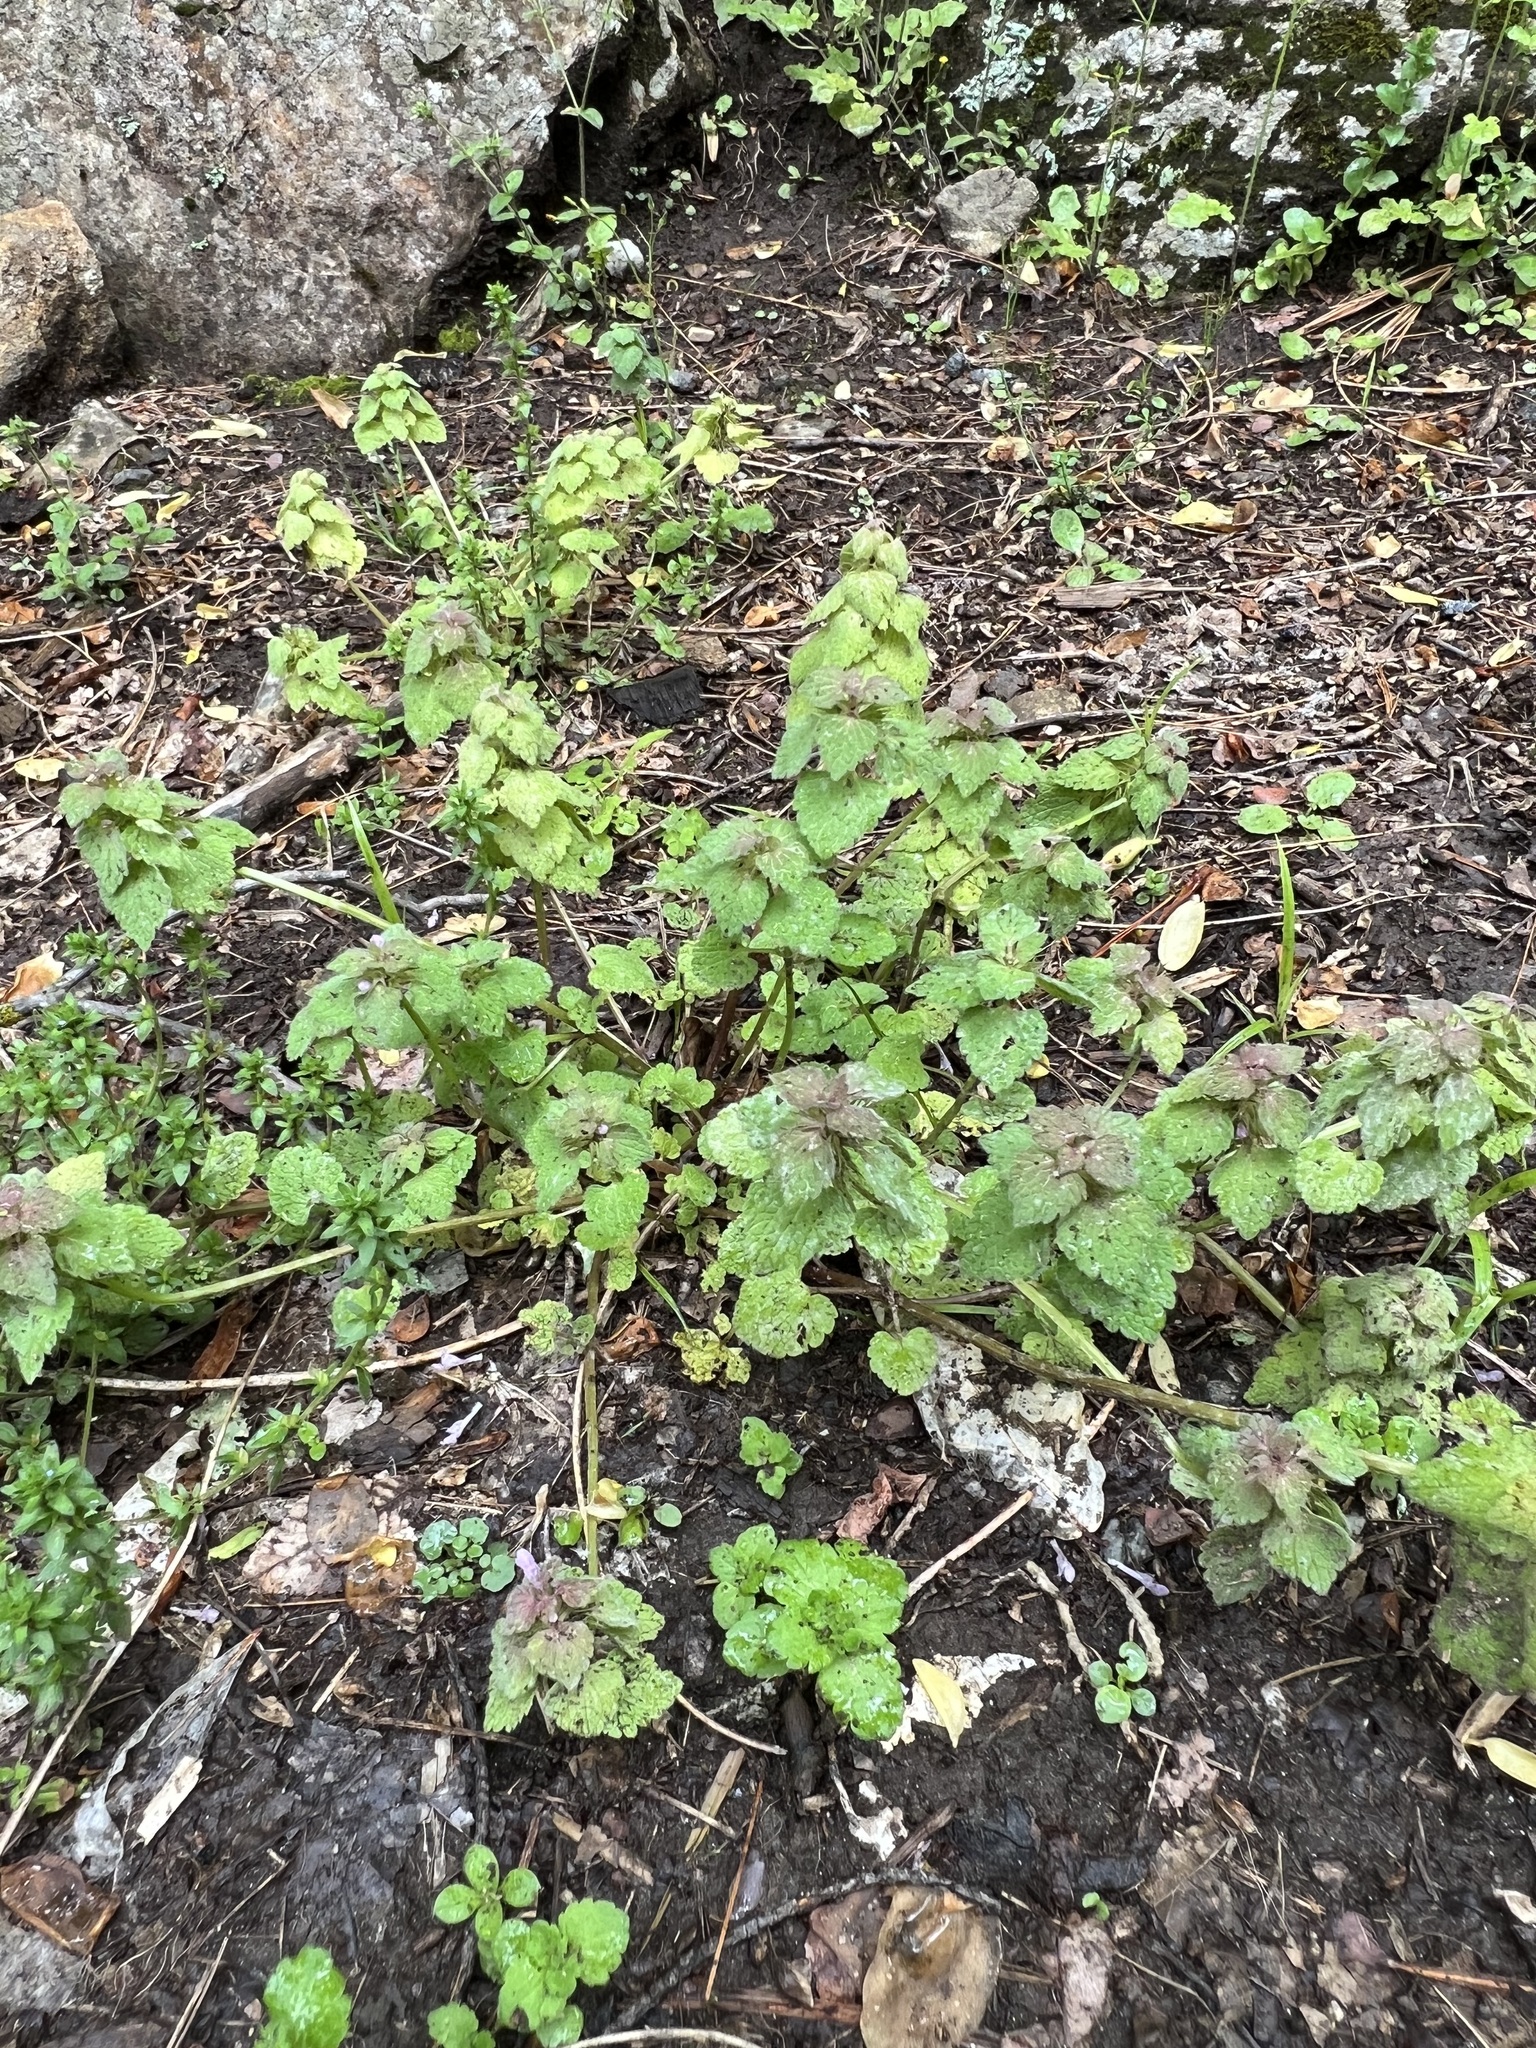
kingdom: Plantae
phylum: Tracheophyta
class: Magnoliopsida
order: Lamiales
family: Lamiaceae
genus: Lamium
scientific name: Lamium purpureum
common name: Red dead-nettle
